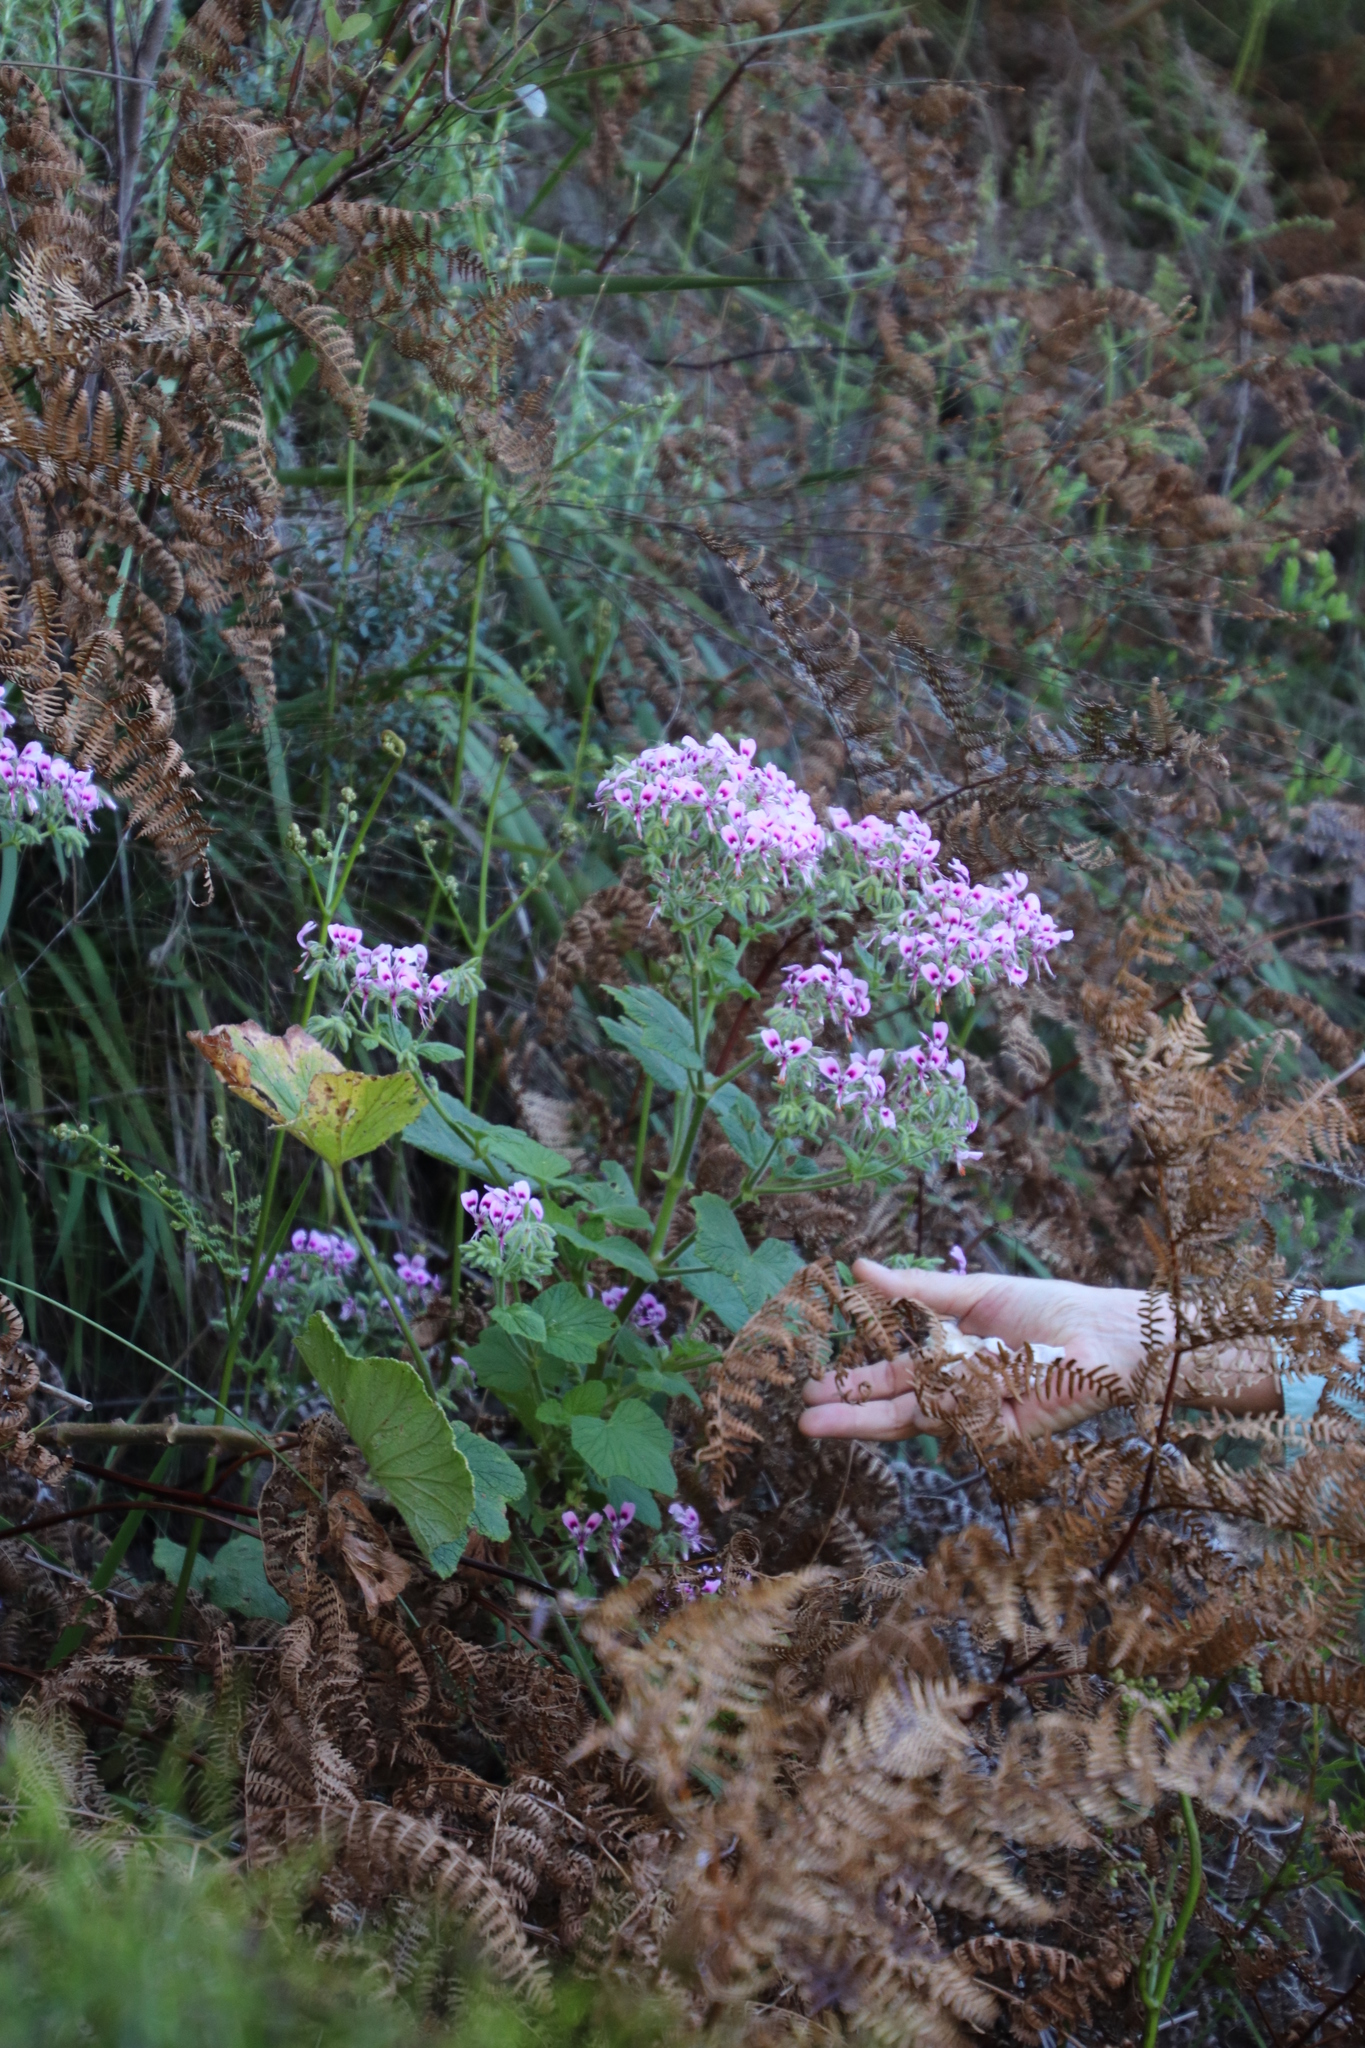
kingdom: Plantae
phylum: Tracheophyta
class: Magnoliopsida
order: Geraniales
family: Geraniaceae
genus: Pelargonium
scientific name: Pelargonium papilionaceum
